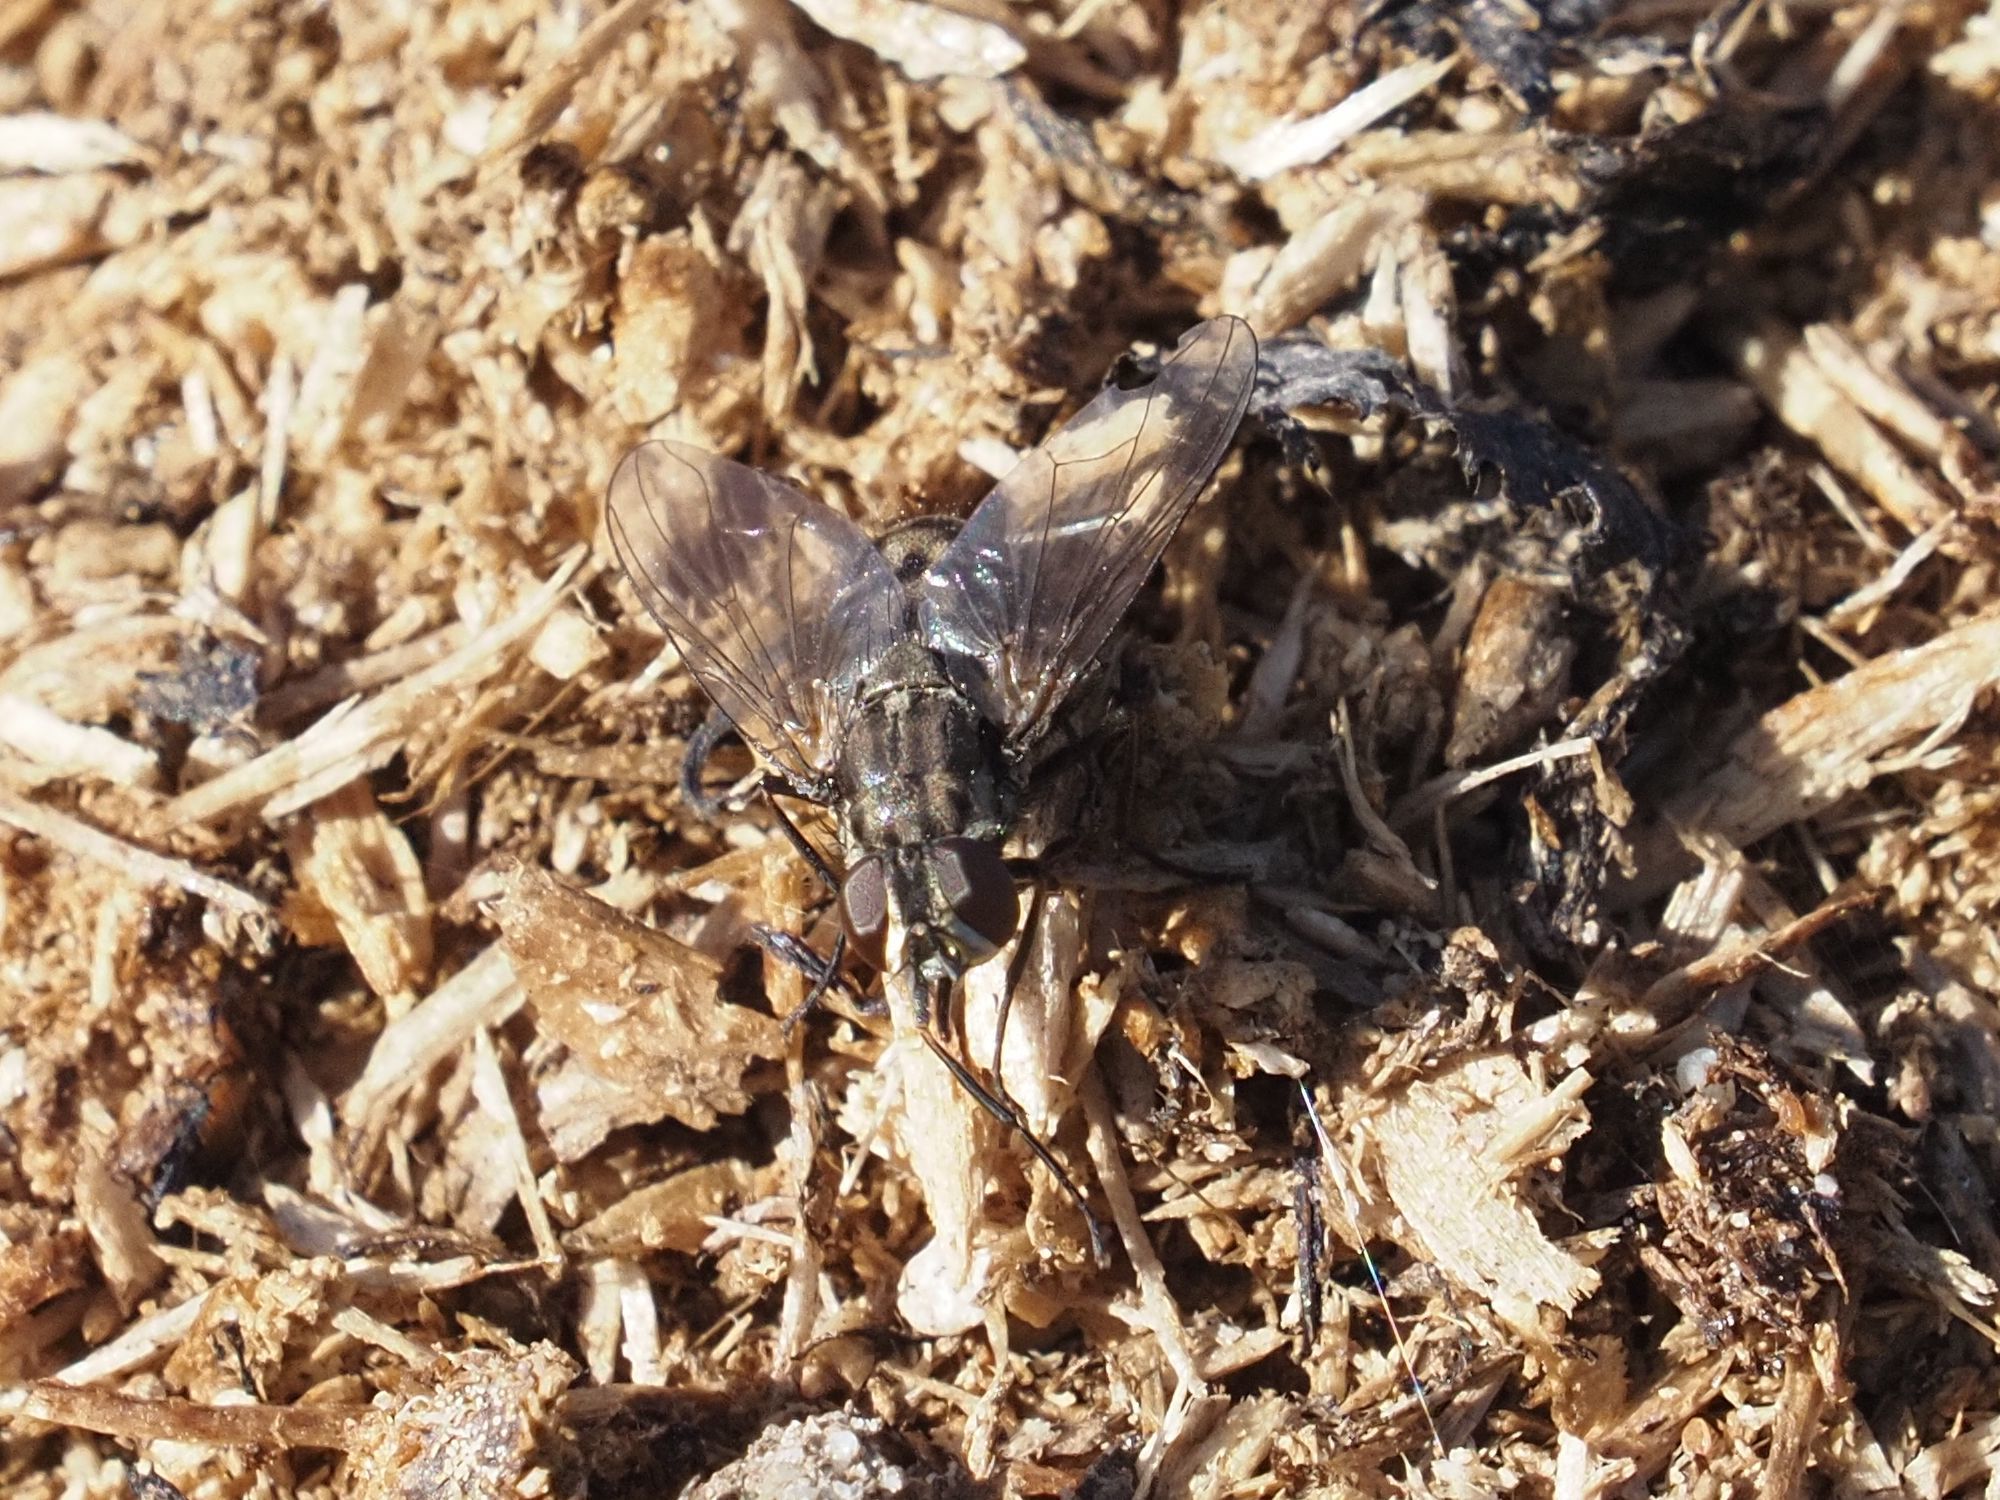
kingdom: Animalia
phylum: Arthropoda
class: Insecta
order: Diptera
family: Muscidae
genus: Stomoxys
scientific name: Stomoxys calcitrans
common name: Stable fly
